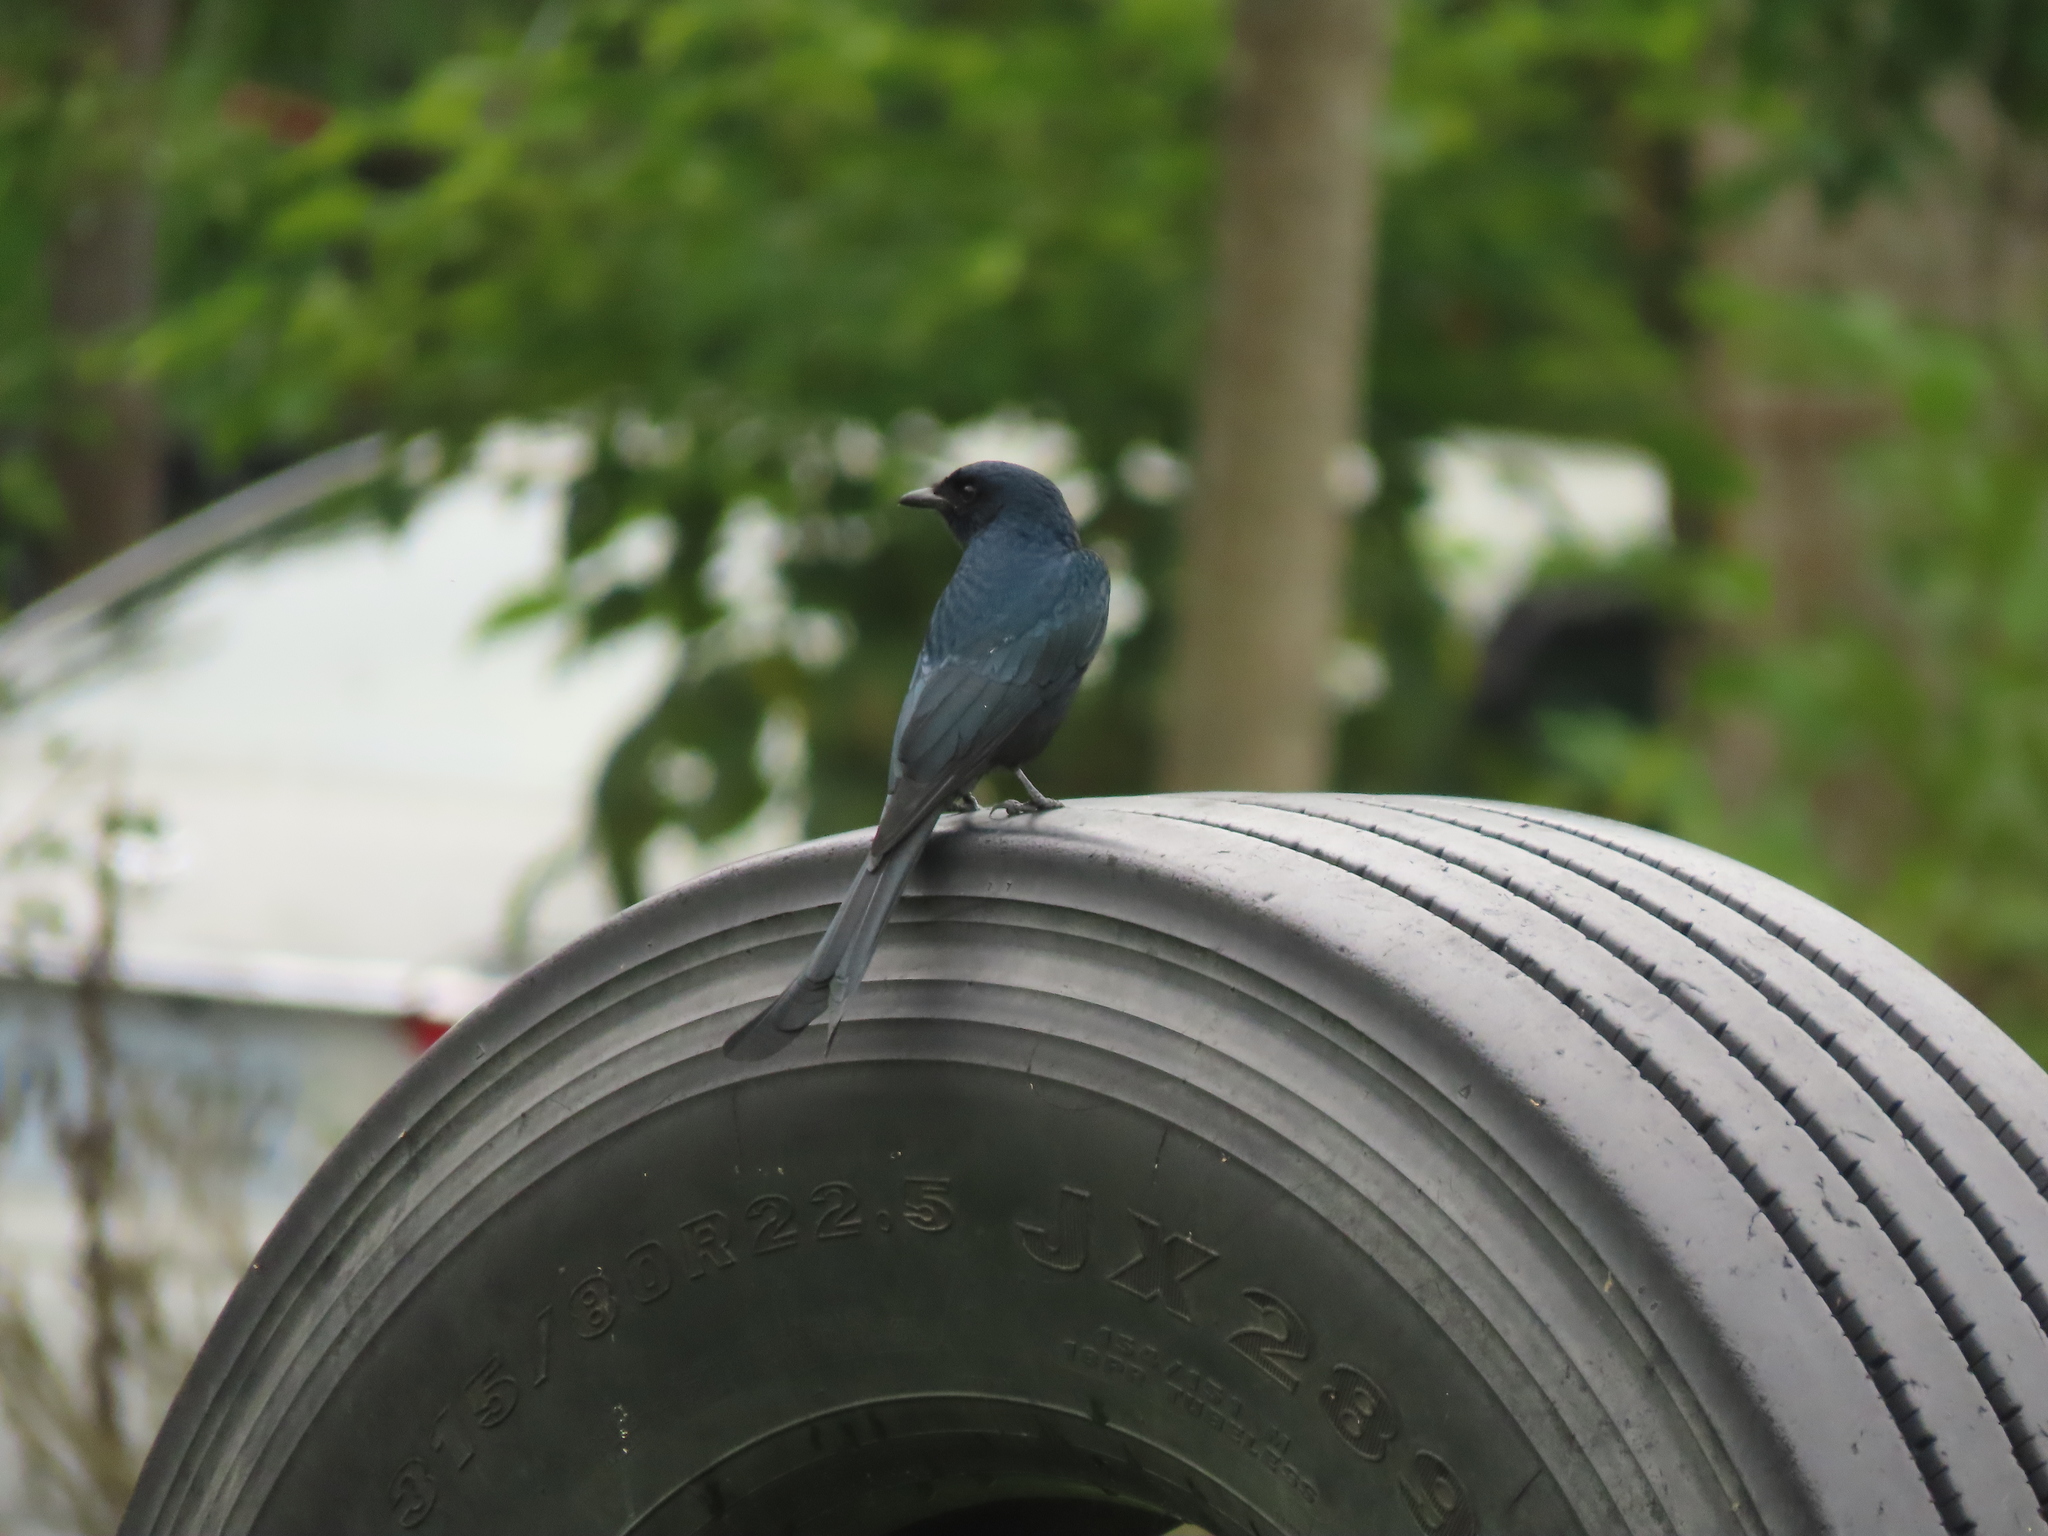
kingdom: Animalia
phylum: Chordata
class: Aves
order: Passeriformes
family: Dicruridae
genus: Dicrurus
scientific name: Dicrurus macrocercus
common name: Black drongo
